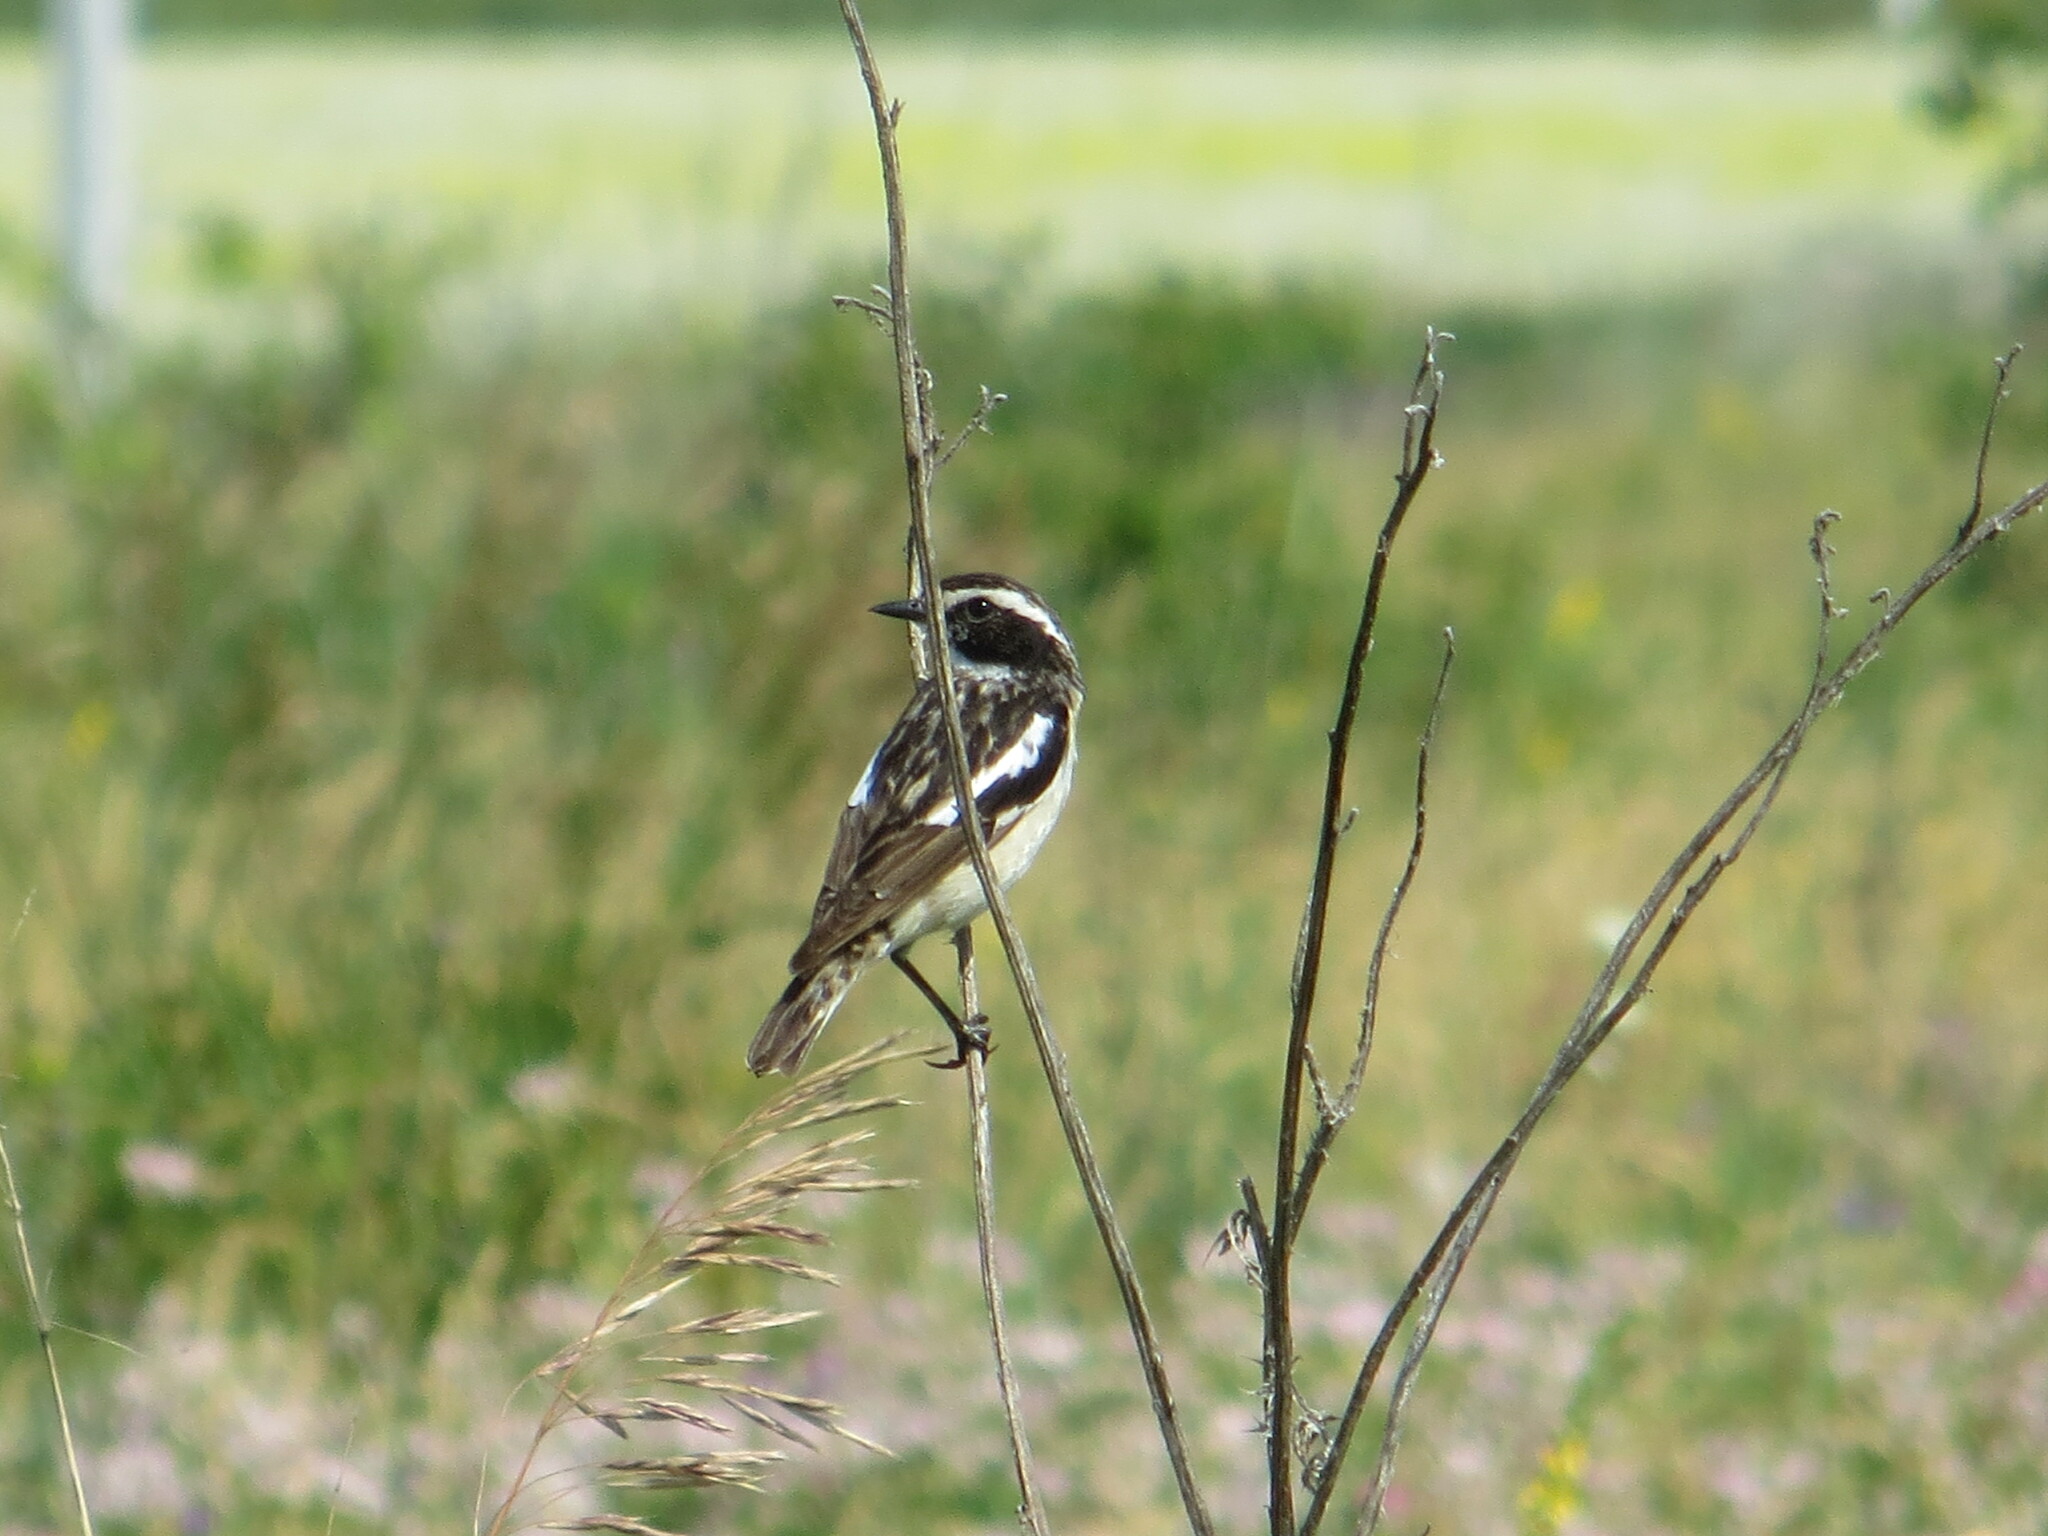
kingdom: Animalia
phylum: Chordata
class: Aves
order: Passeriformes
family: Muscicapidae
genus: Saxicola
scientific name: Saxicola rubetra
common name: Whinchat
